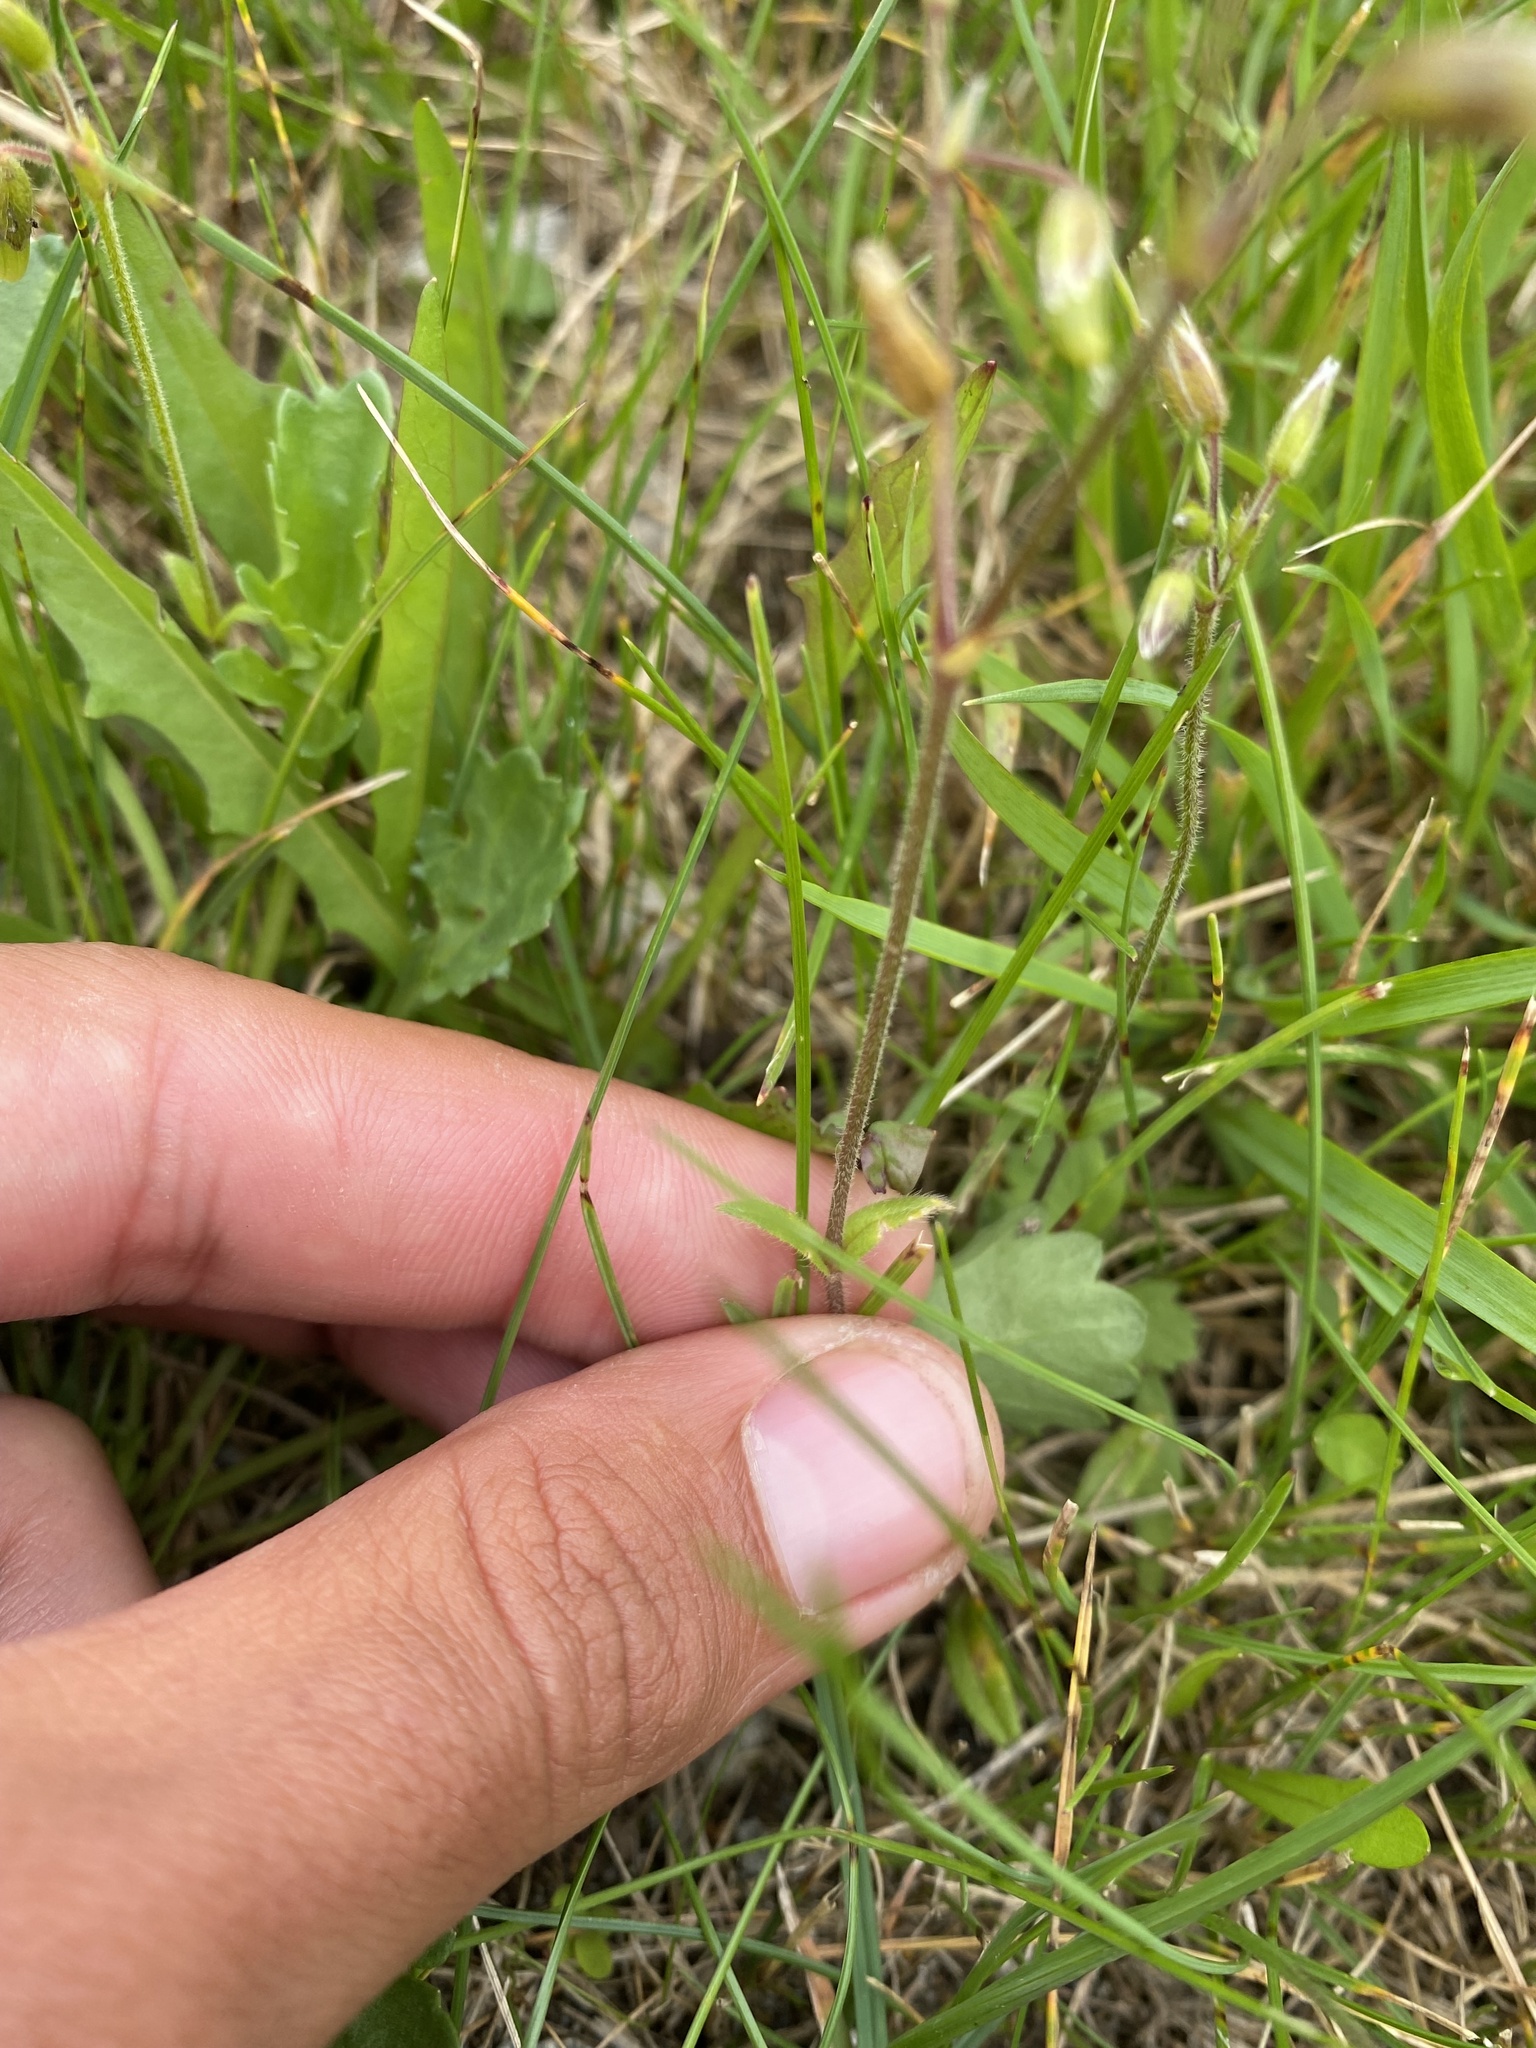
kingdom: Plantae
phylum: Tracheophyta
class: Magnoliopsida
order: Caryophyllales
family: Caryophyllaceae
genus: Cerastium
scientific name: Cerastium holosteoides
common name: Big chickweed
